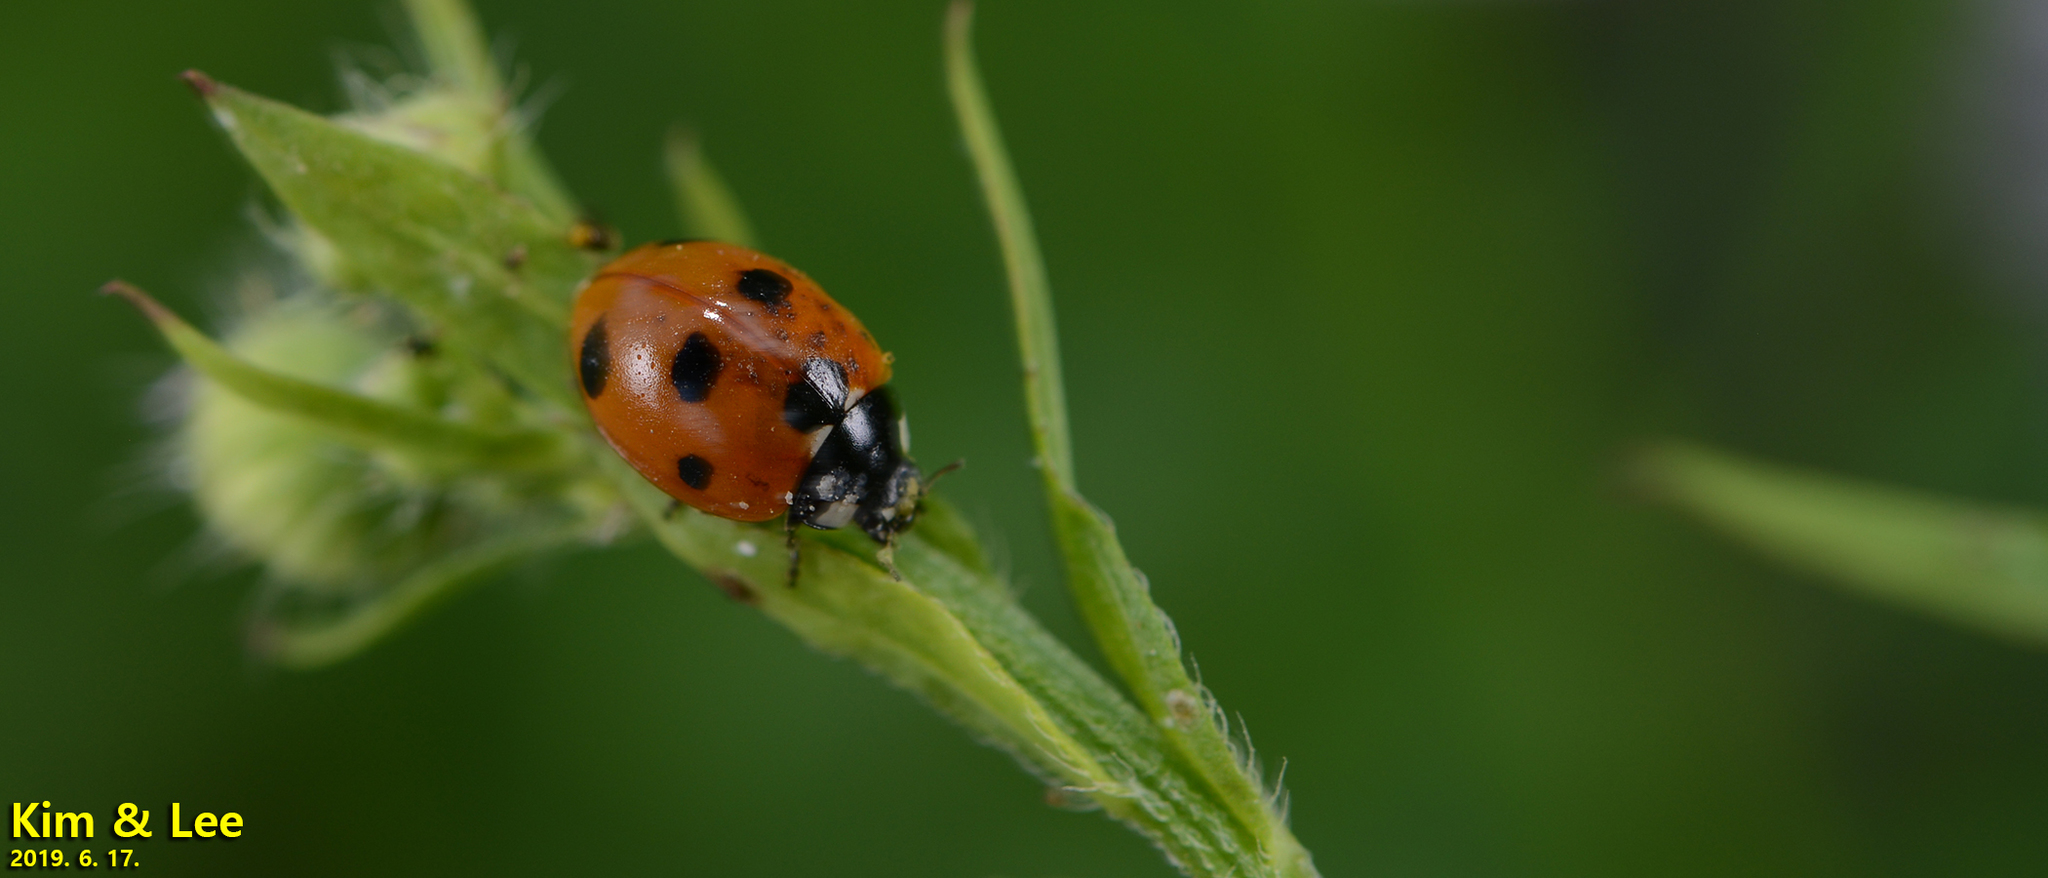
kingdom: Animalia
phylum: Arthropoda
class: Insecta
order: Coleoptera
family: Coccinellidae
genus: Coccinella
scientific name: Coccinella septempunctata
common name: Sevenspotted lady beetle
